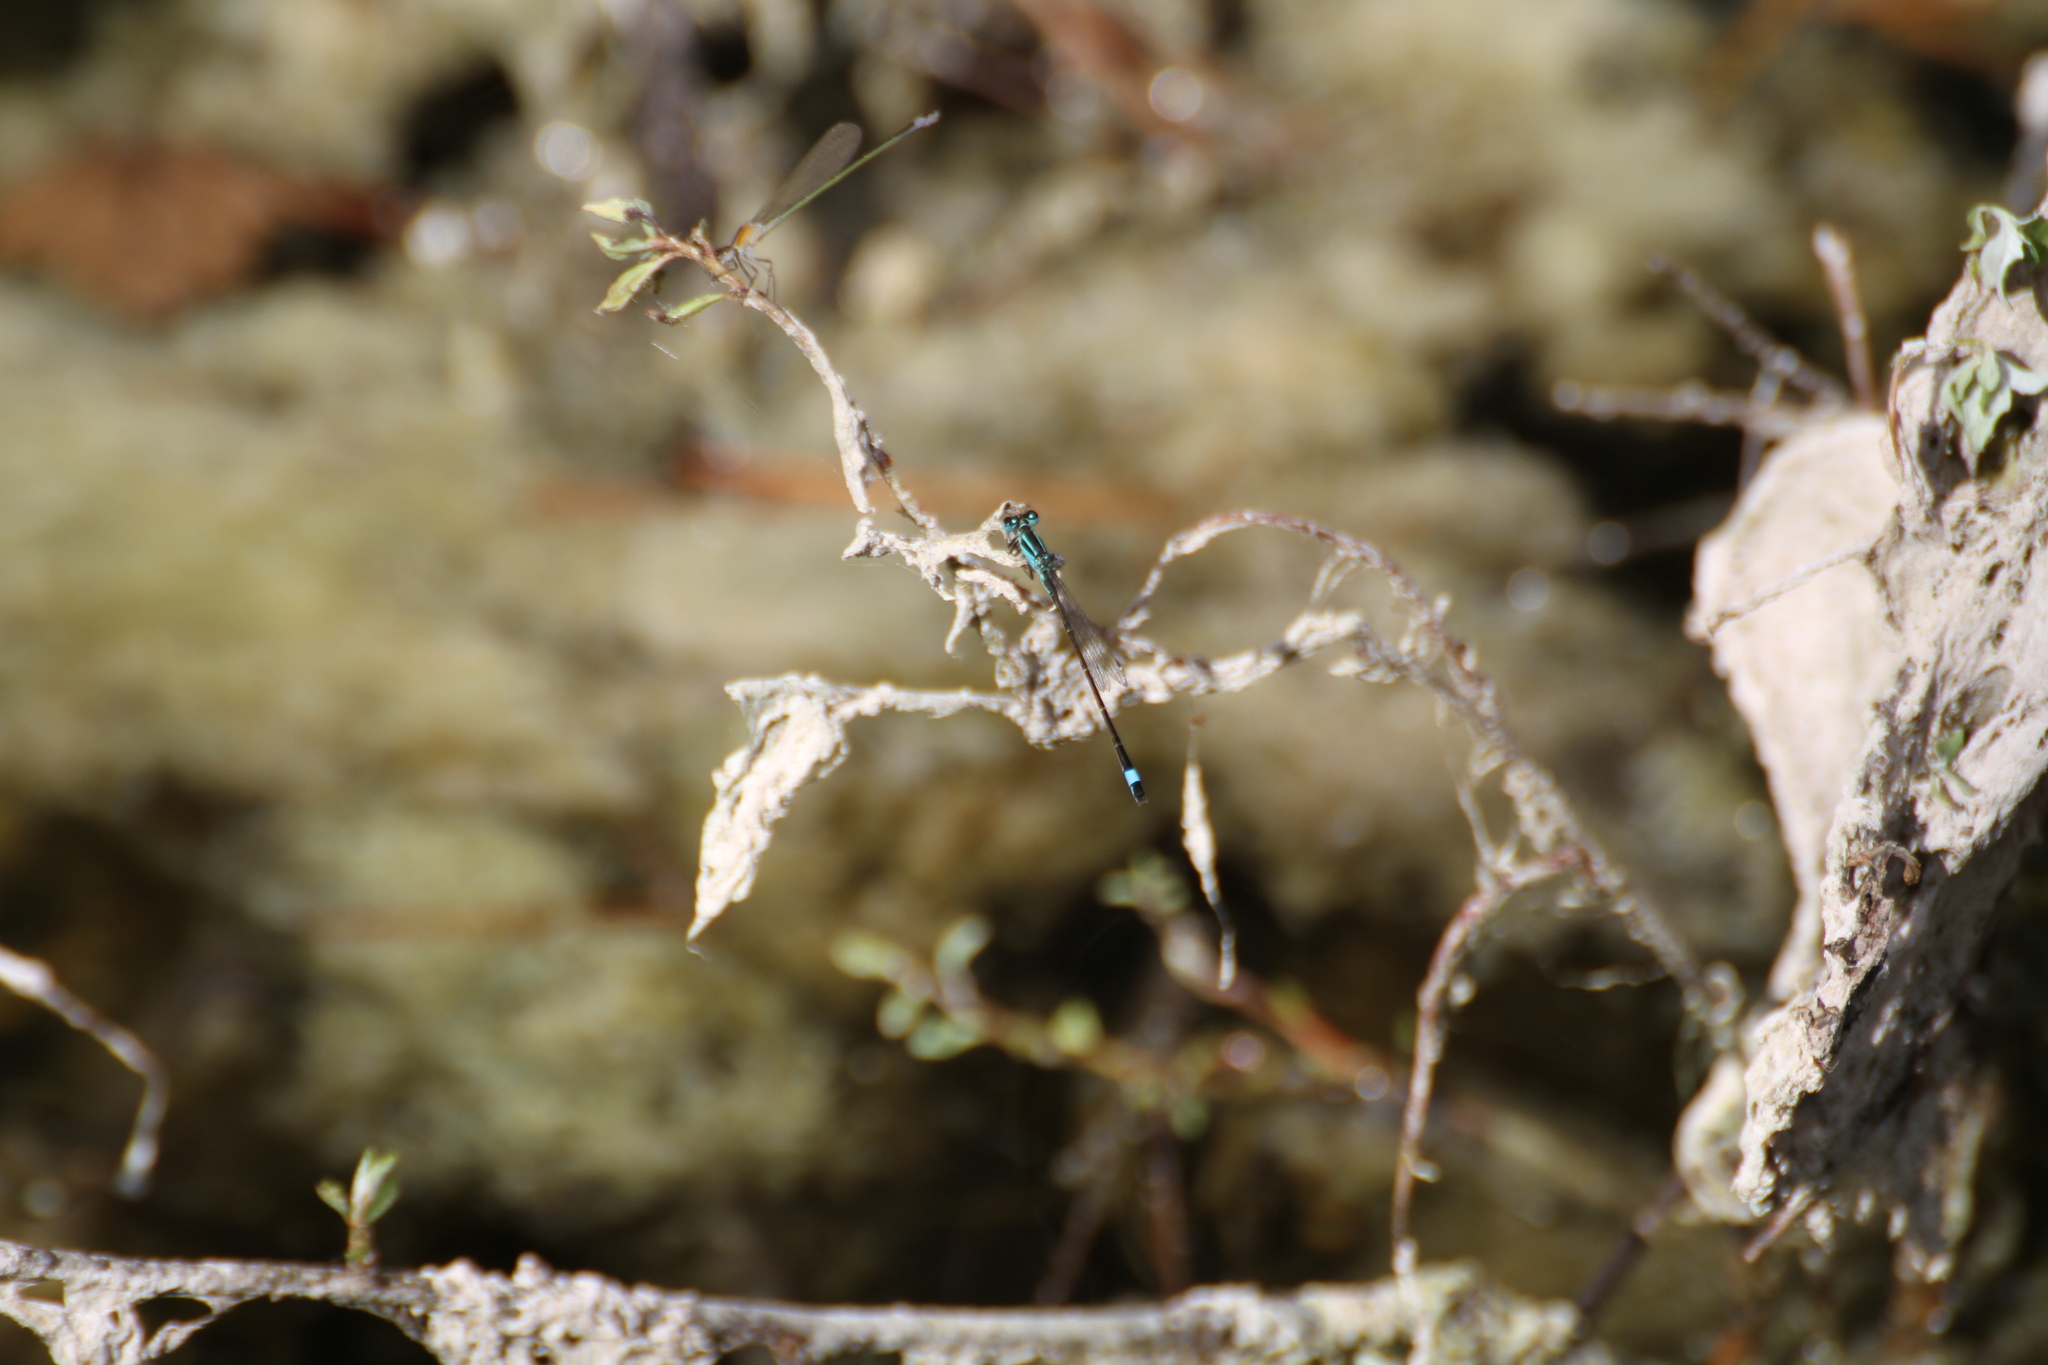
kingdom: Animalia
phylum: Arthropoda
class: Insecta
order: Odonata
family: Coenagrionidae
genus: Ischnura
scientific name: Ischnura elegans
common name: Blue-tailed damselfly
